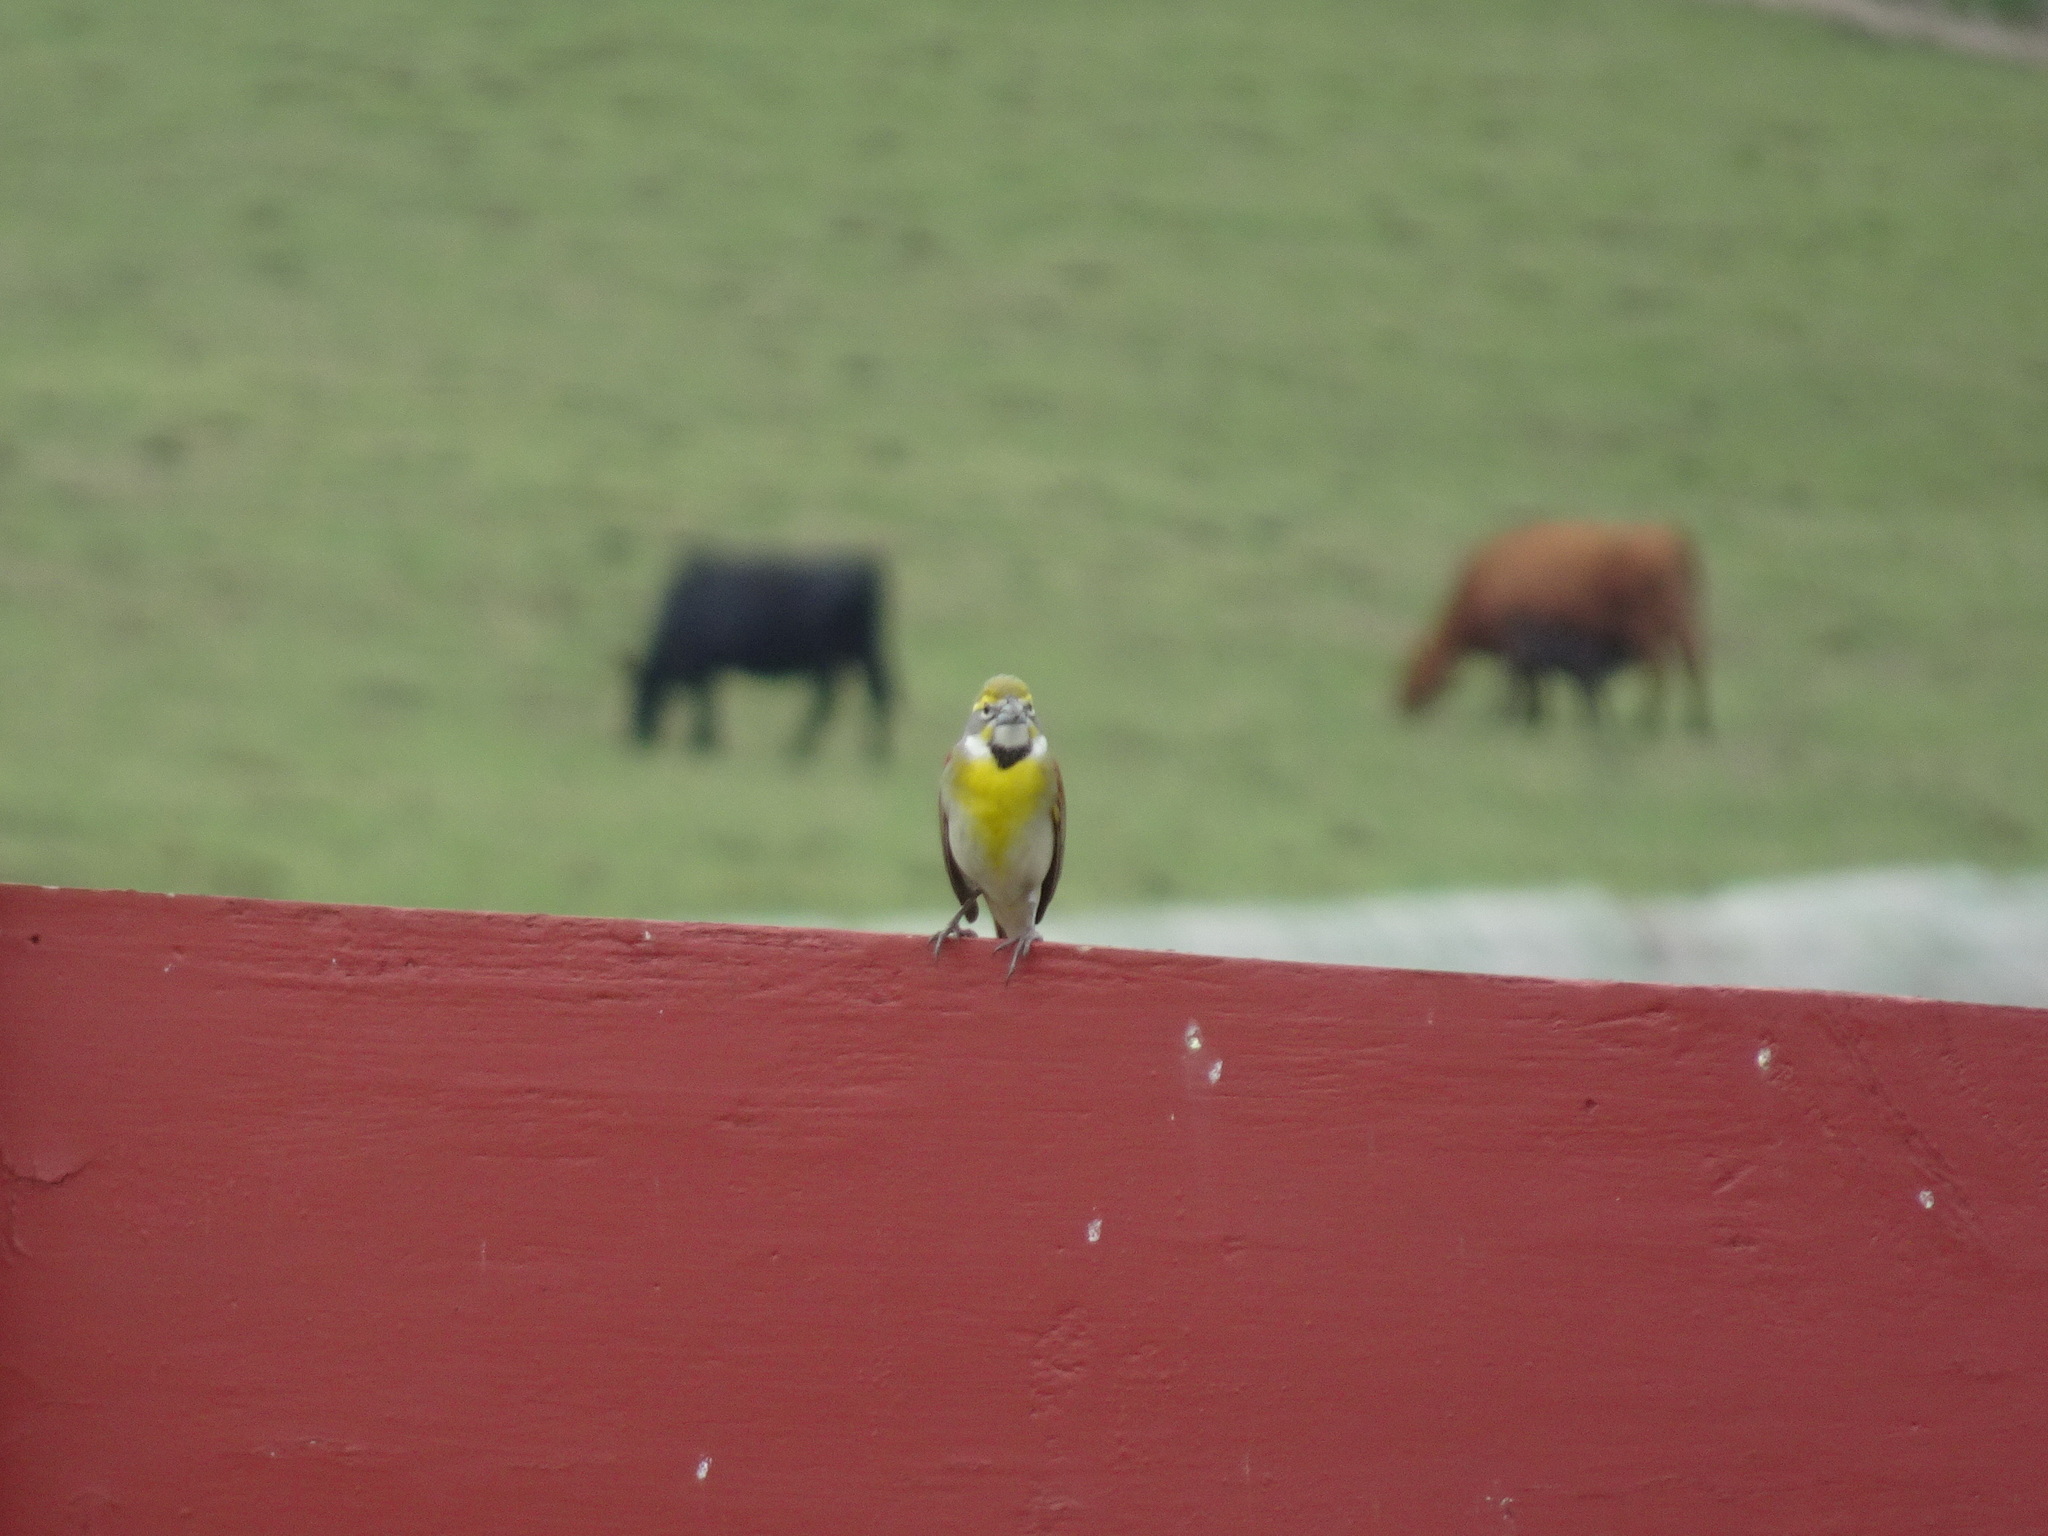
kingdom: Animalia
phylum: Chordata
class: Aves
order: Passeriformes
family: Cardinalidae
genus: Spiza
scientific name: Spiza americana
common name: Dickcissel
